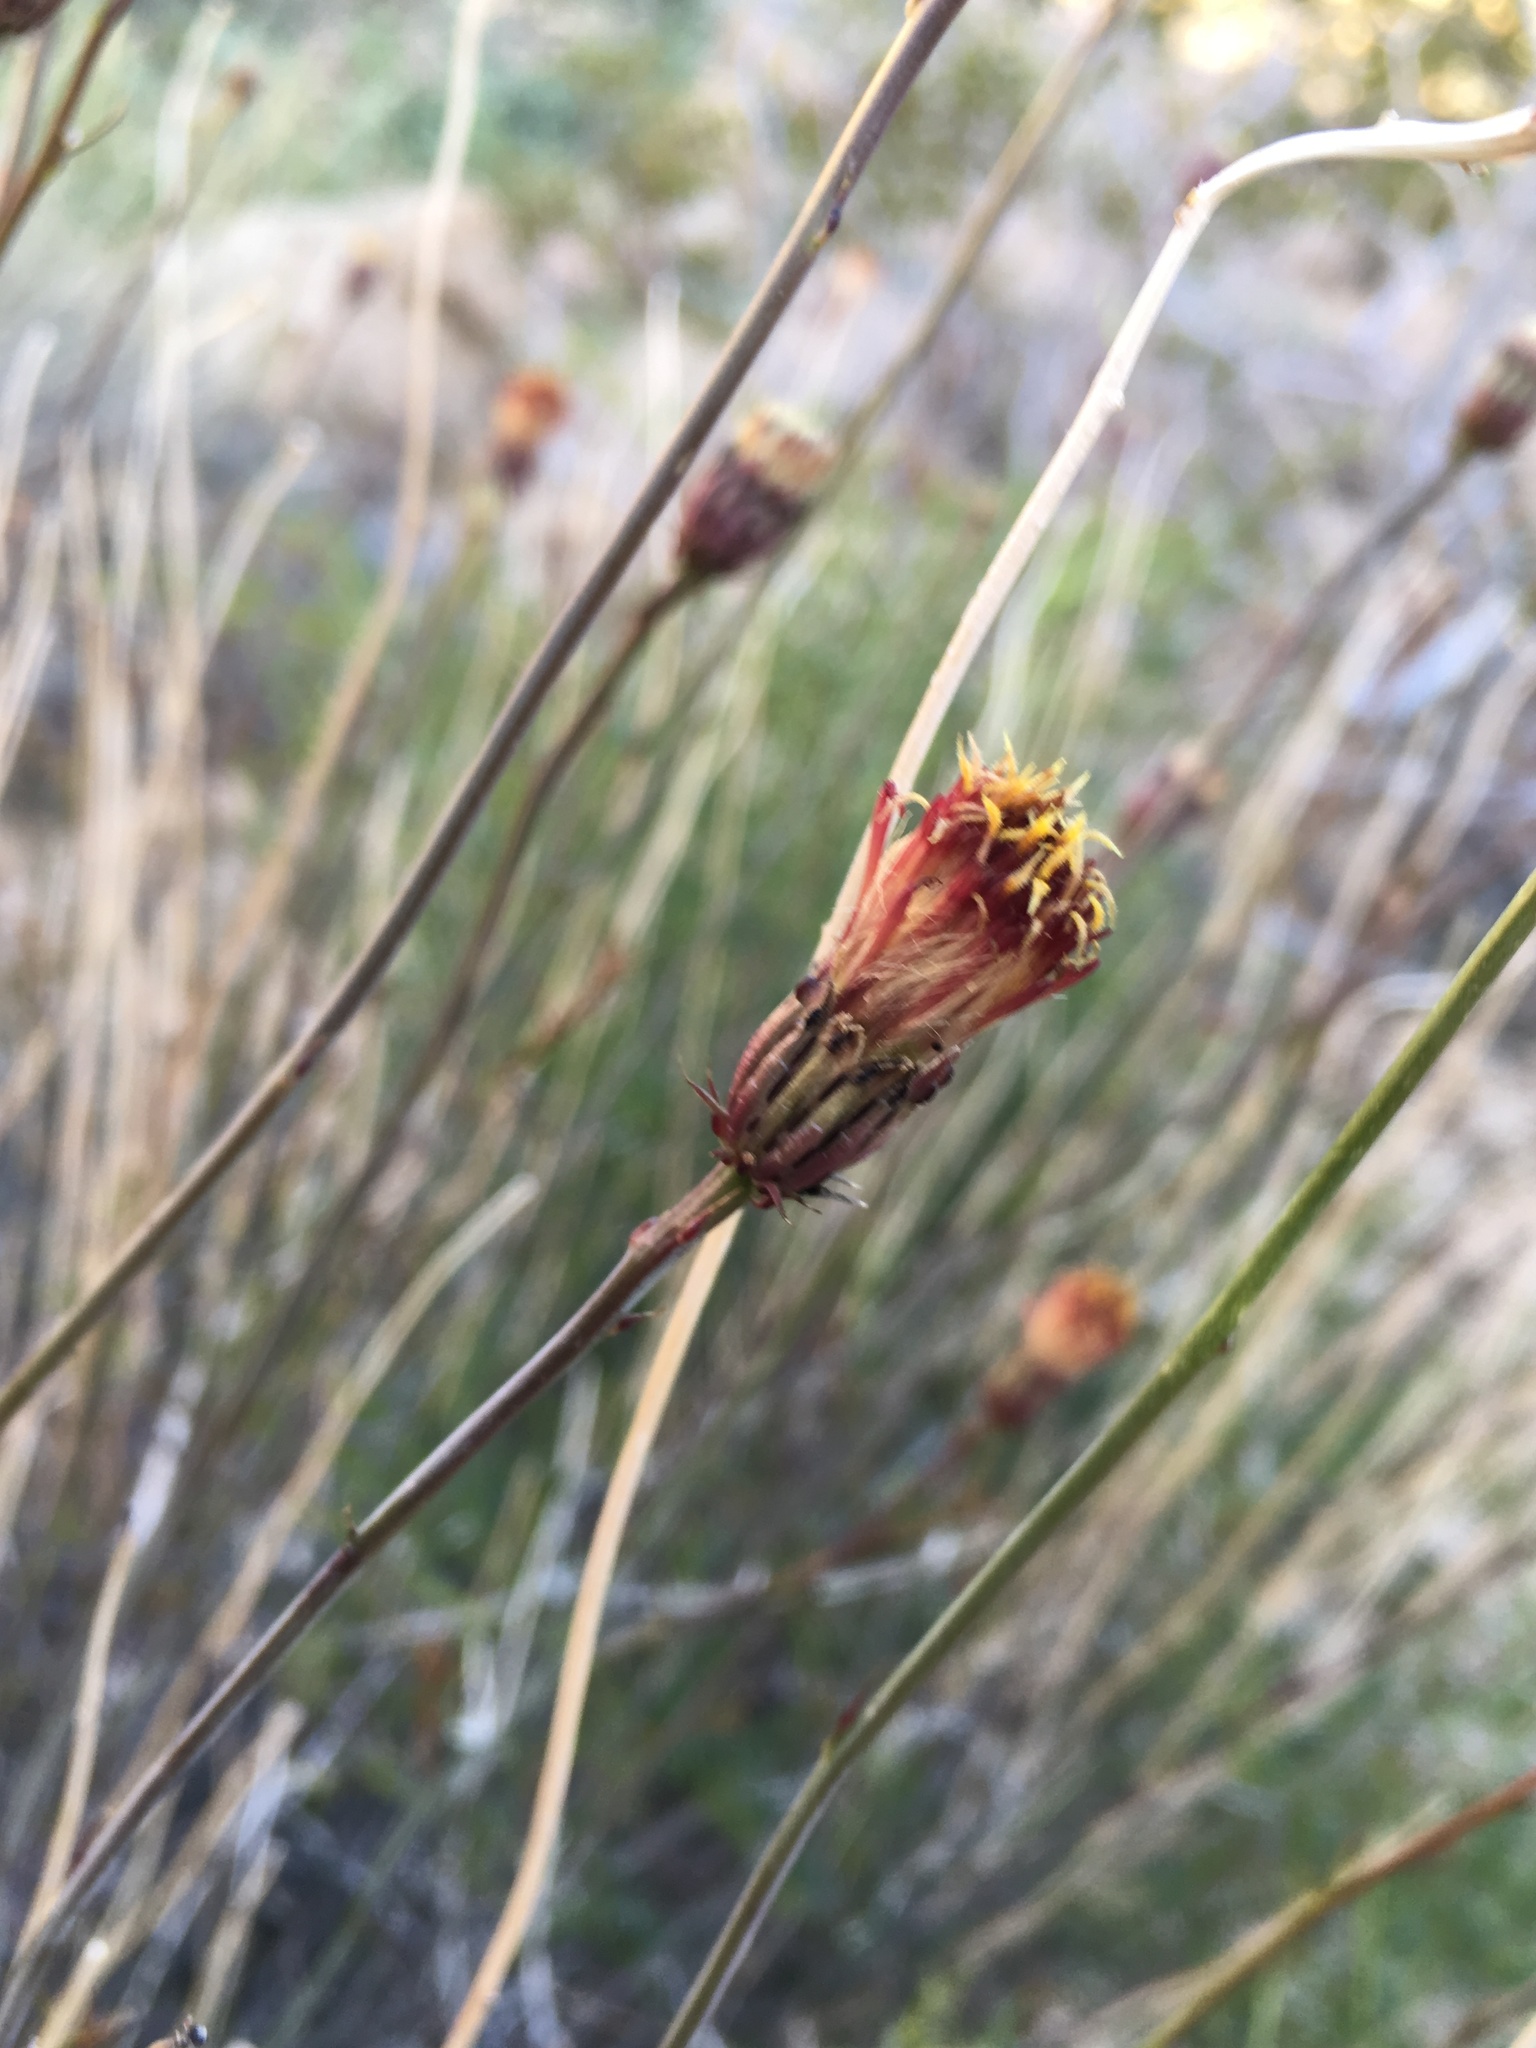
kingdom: Plantae
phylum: Tracheophyta
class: Magnoliopsida
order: Asterales
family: Asteraceae
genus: Adenophyllum
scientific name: Adenophyllum porophylloides
